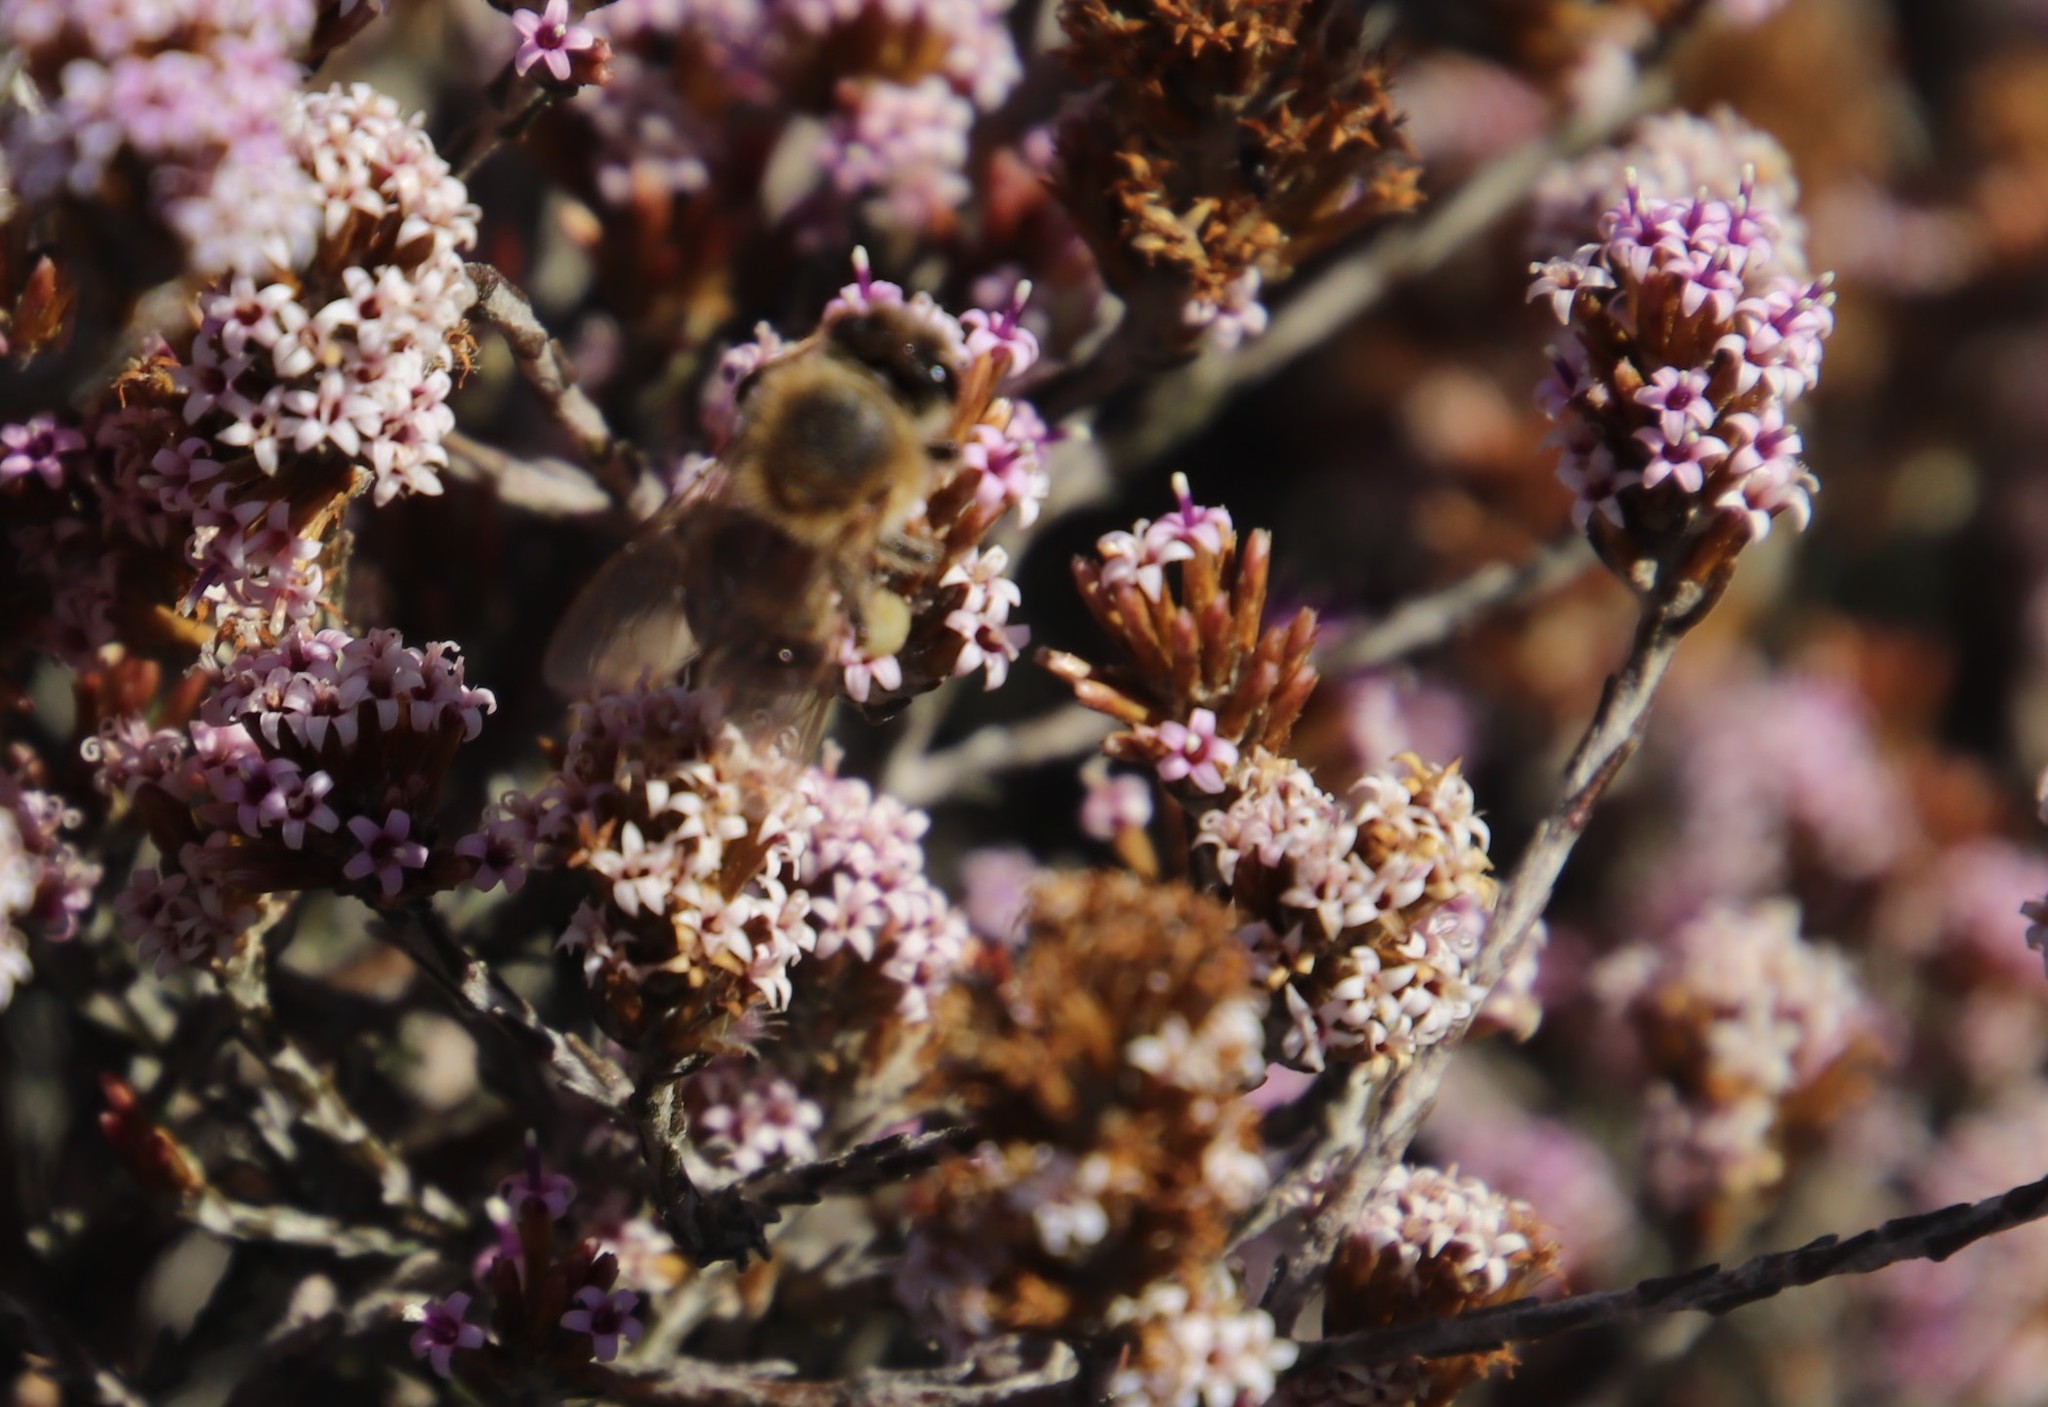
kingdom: Plantae
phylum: Tracheophyta
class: Magnoliopsida
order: Asterales
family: Asteraceae
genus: Stoebe
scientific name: Stoebe fusca
